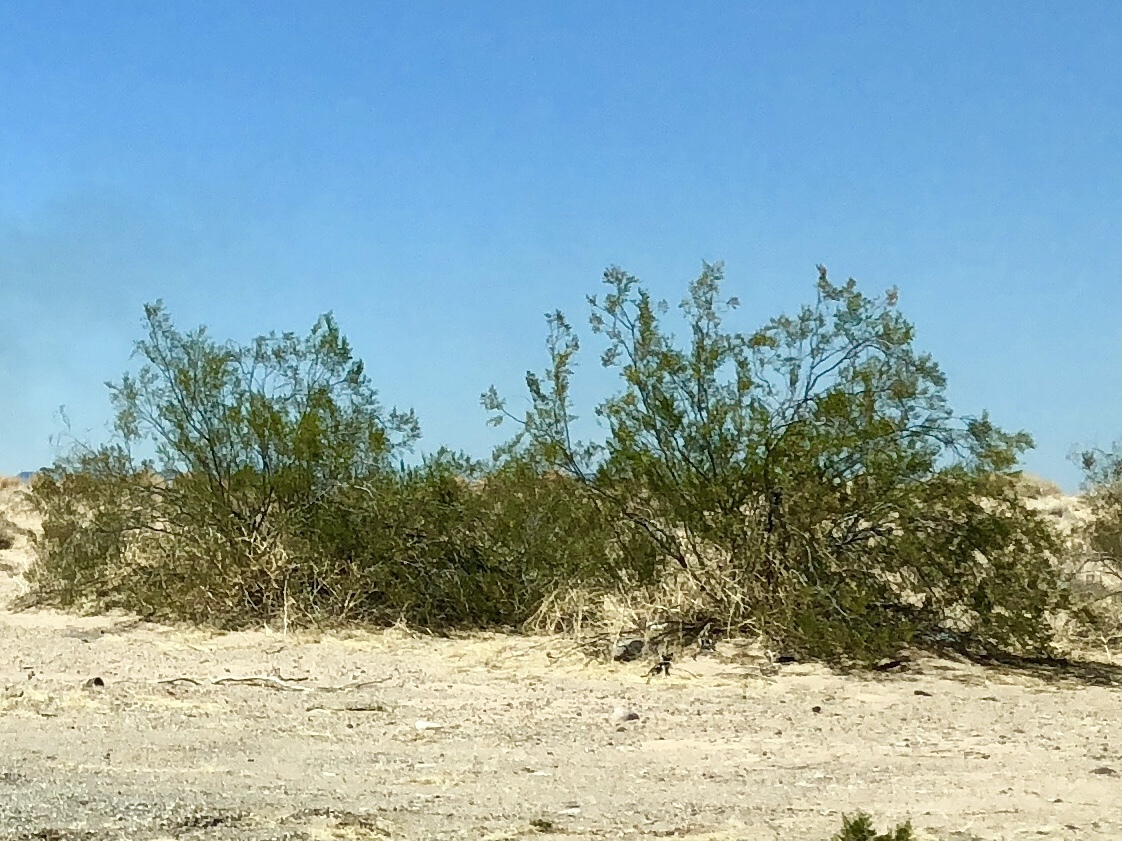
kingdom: Plantae
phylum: Tracheophyta
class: Magnoliopsida
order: Zygophyllales
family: Zygophyllaceae
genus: Larrea
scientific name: Larrea tridentata
